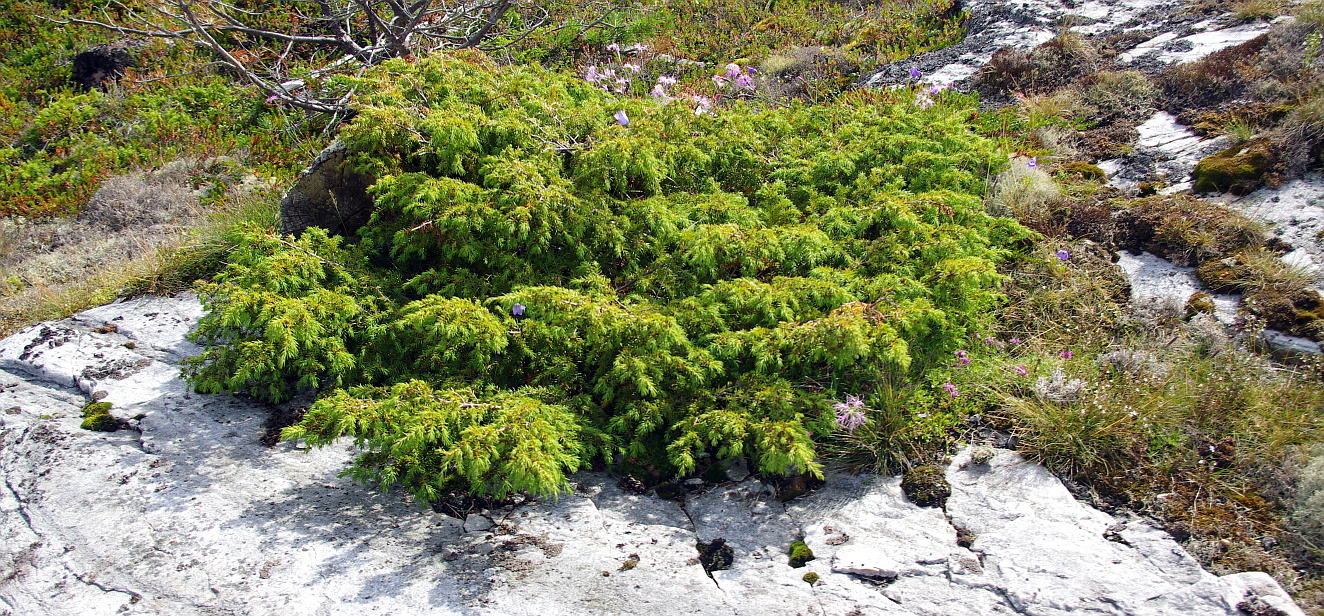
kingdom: Plantae
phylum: Tracheophyta
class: Pinopsida
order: Pinales
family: Cupressaceae
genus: Juniperus
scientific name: Juniperus communis
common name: Common juniper
